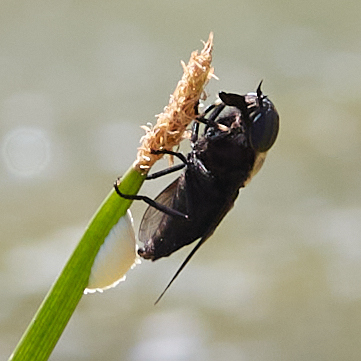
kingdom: Animalia
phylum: Arthropoda
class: Insecta
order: Diptera
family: Tabanidae
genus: Tabanus
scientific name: Tabanus punctifer
